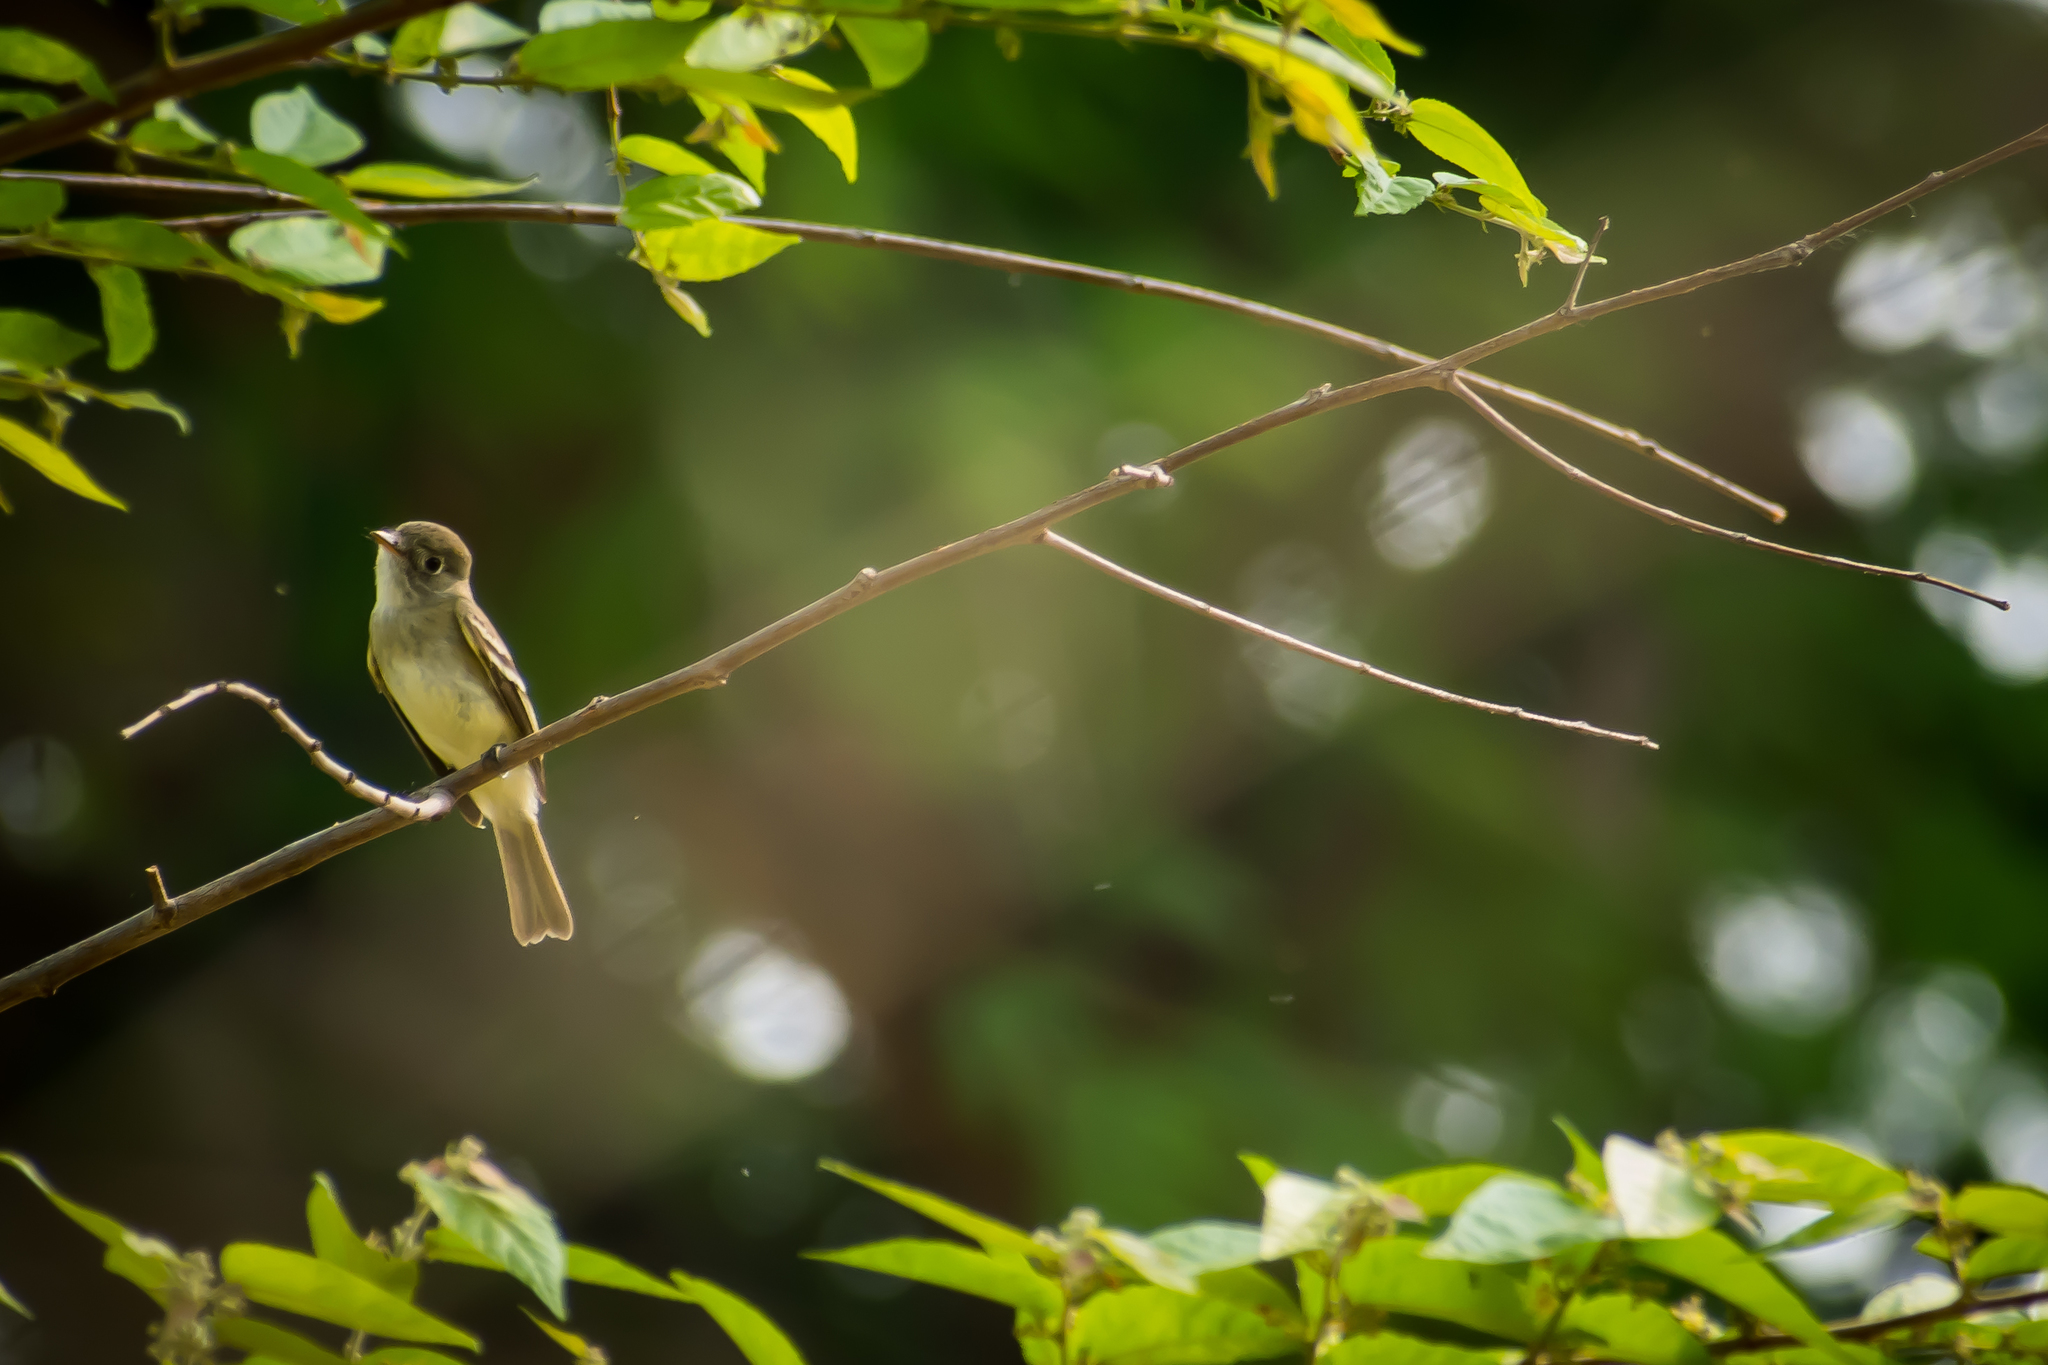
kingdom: Animalia
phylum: Chordata
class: Aves
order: Passeriformes
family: Tyrannidae
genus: Empidonax
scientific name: Empidonax minimus
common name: Least flycatcher
